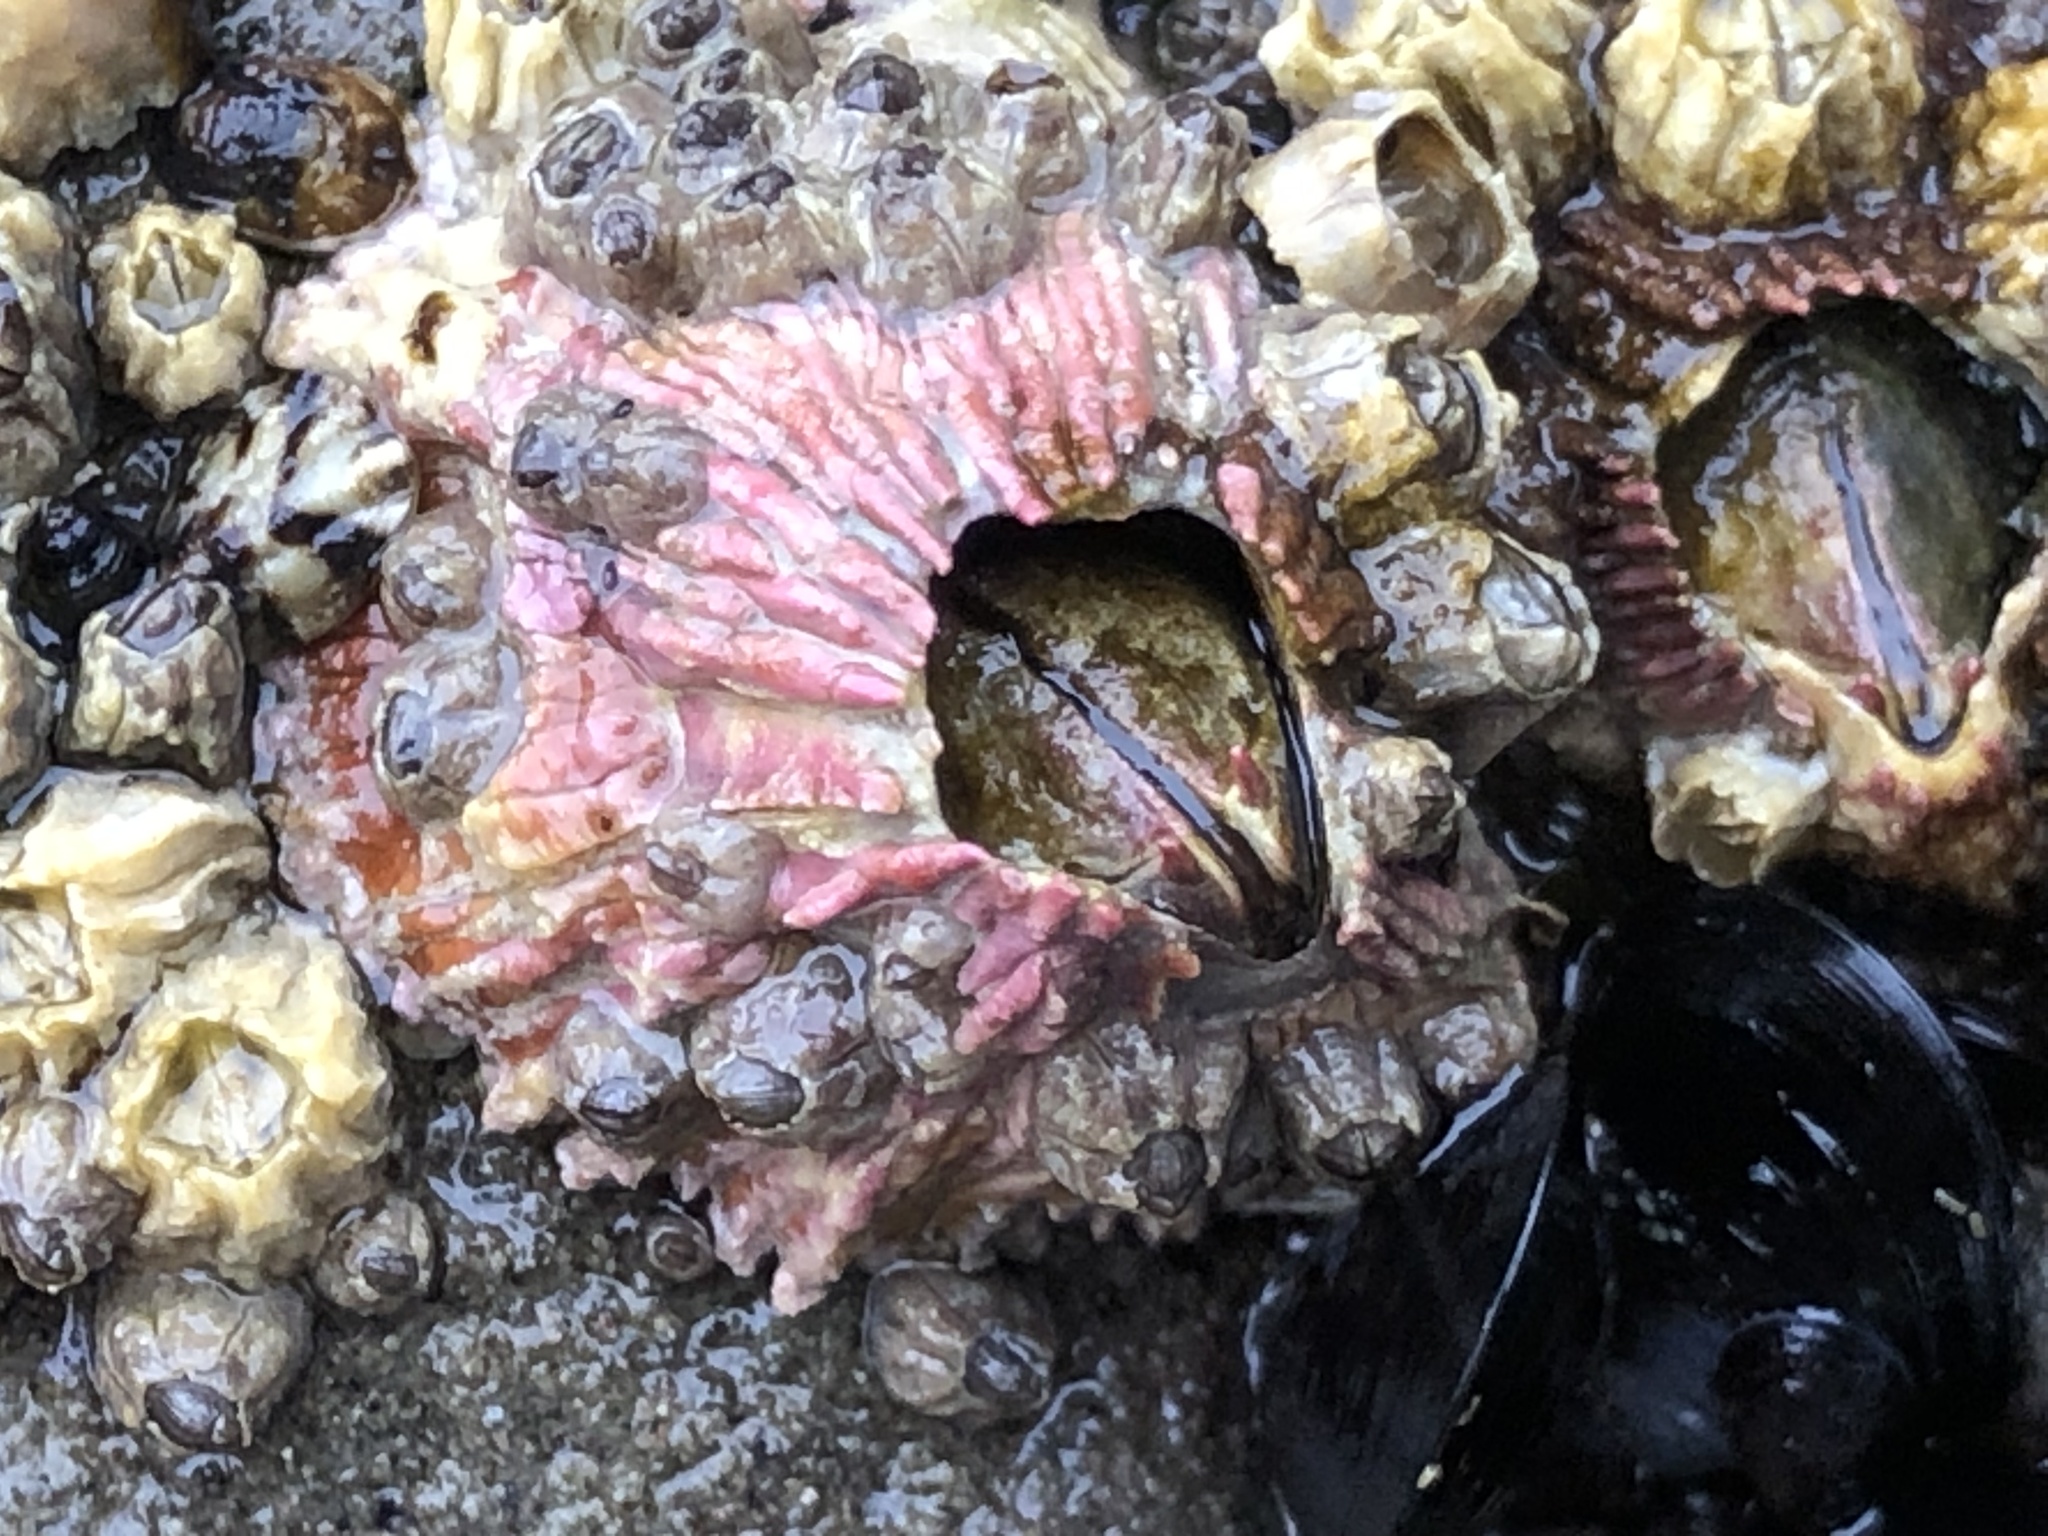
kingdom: Animalia
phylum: Arthropoda
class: Maxillopoda
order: Sessilia
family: Tetraclitidae
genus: Tetraclita
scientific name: Tetraclita rubescens
